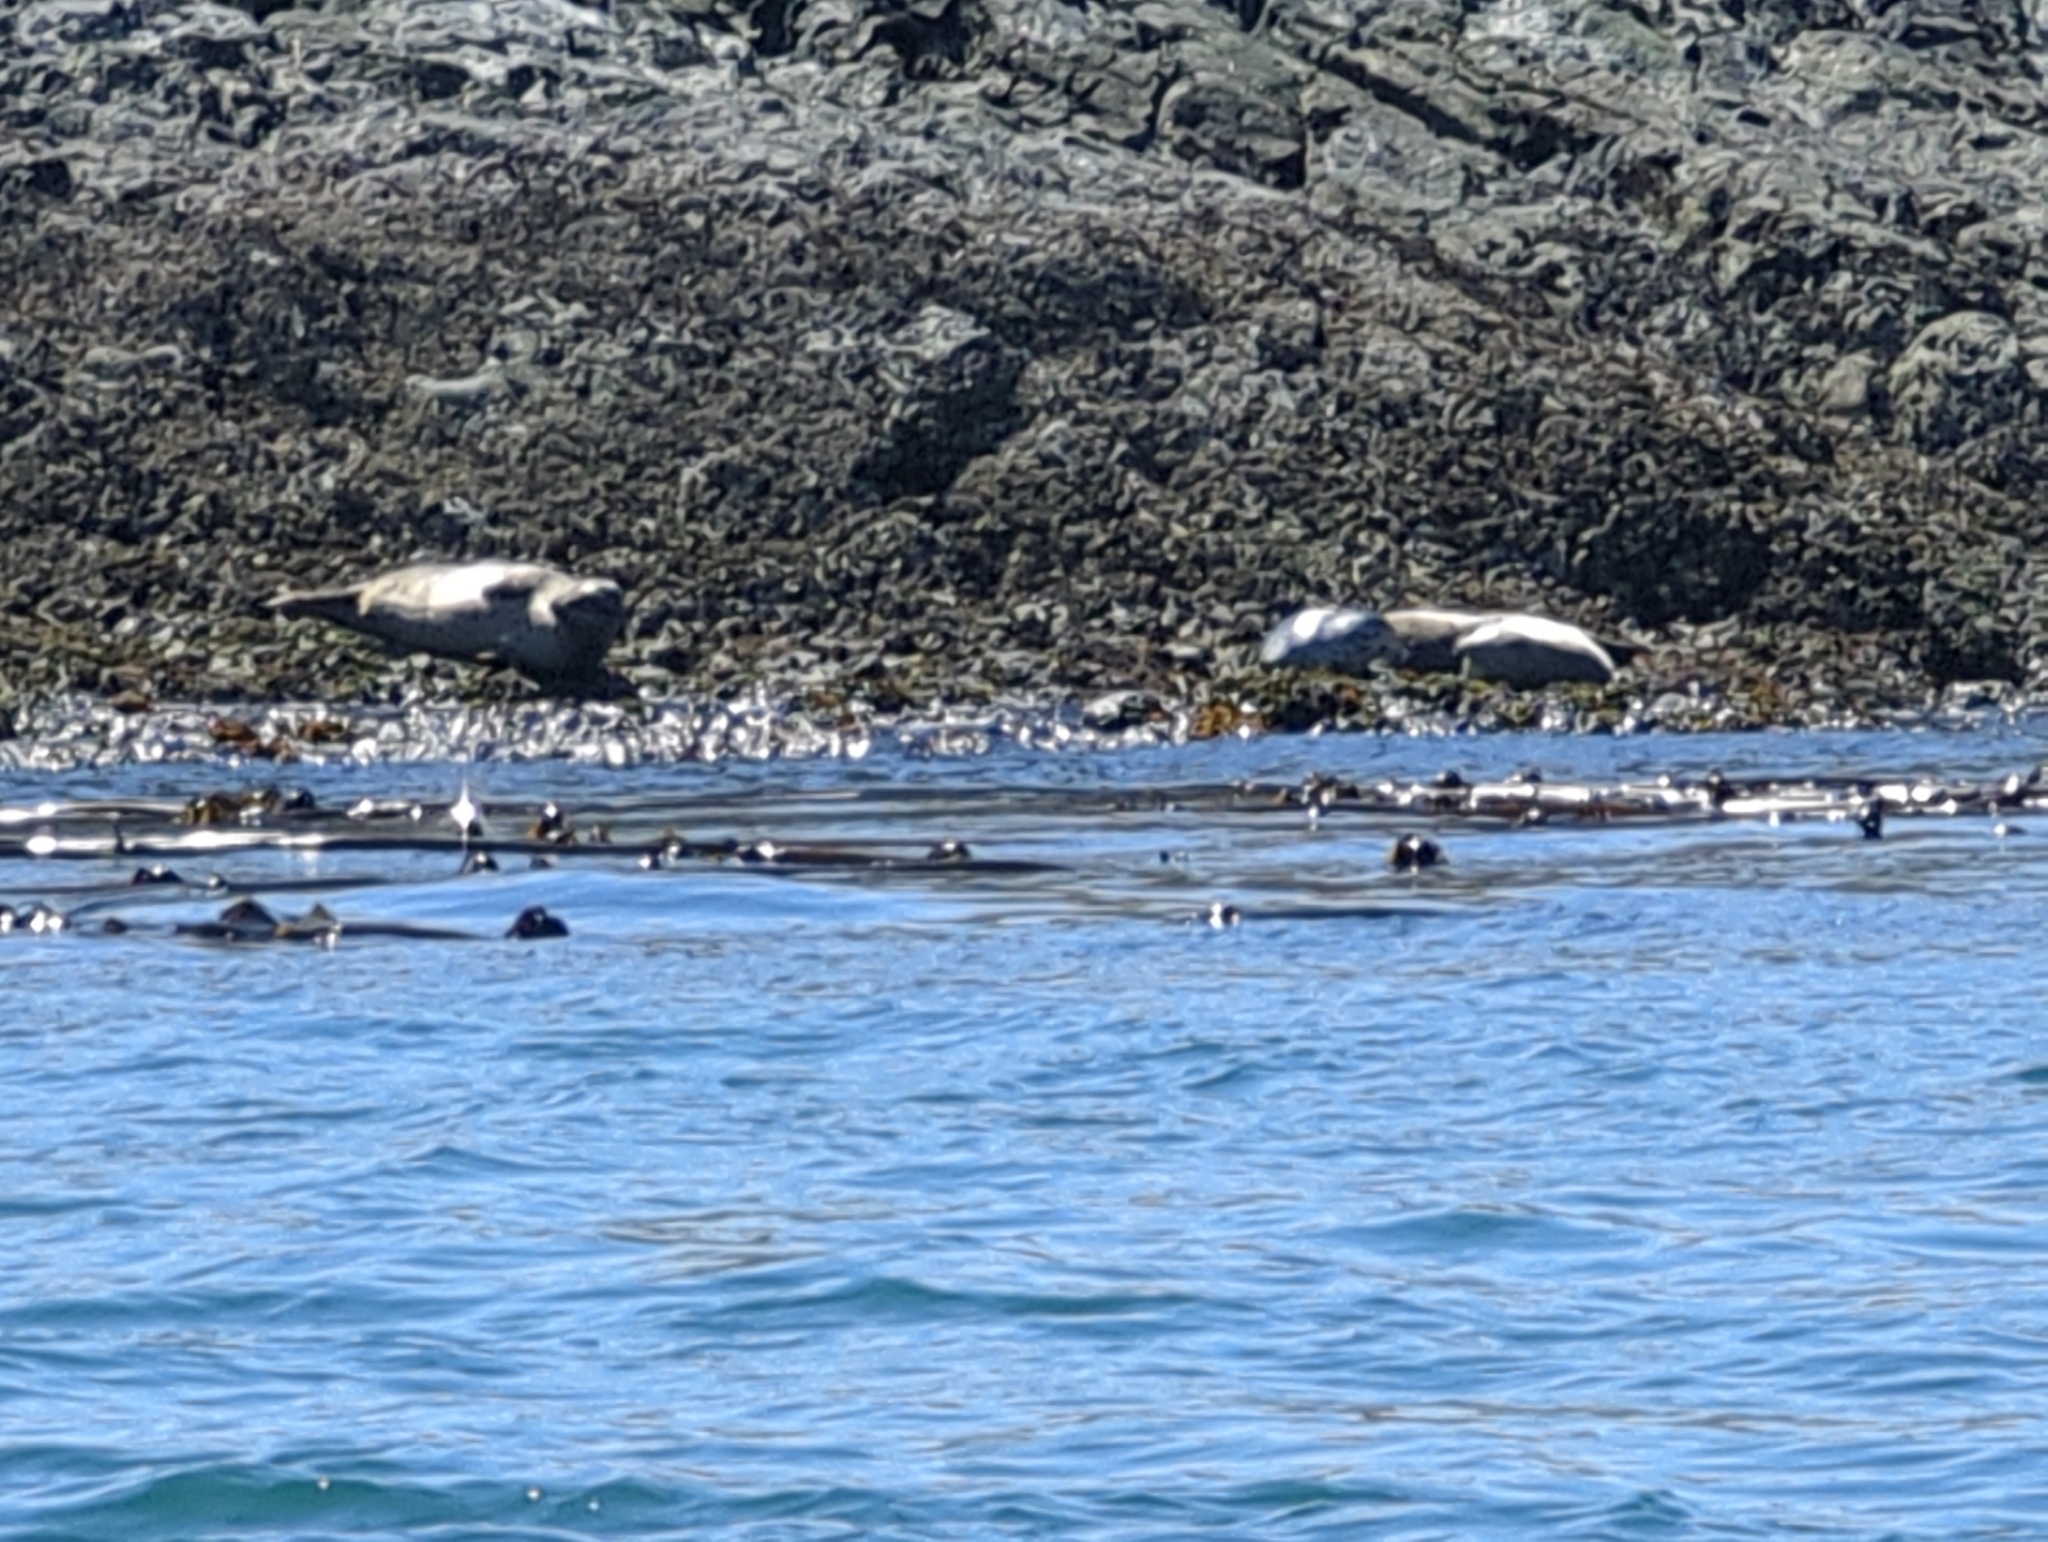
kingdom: Animalia
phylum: Chordata
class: Mammalia
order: Carnivora
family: Phocidae
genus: Phoca
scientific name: Phoca vitulina
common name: Harbor seal
